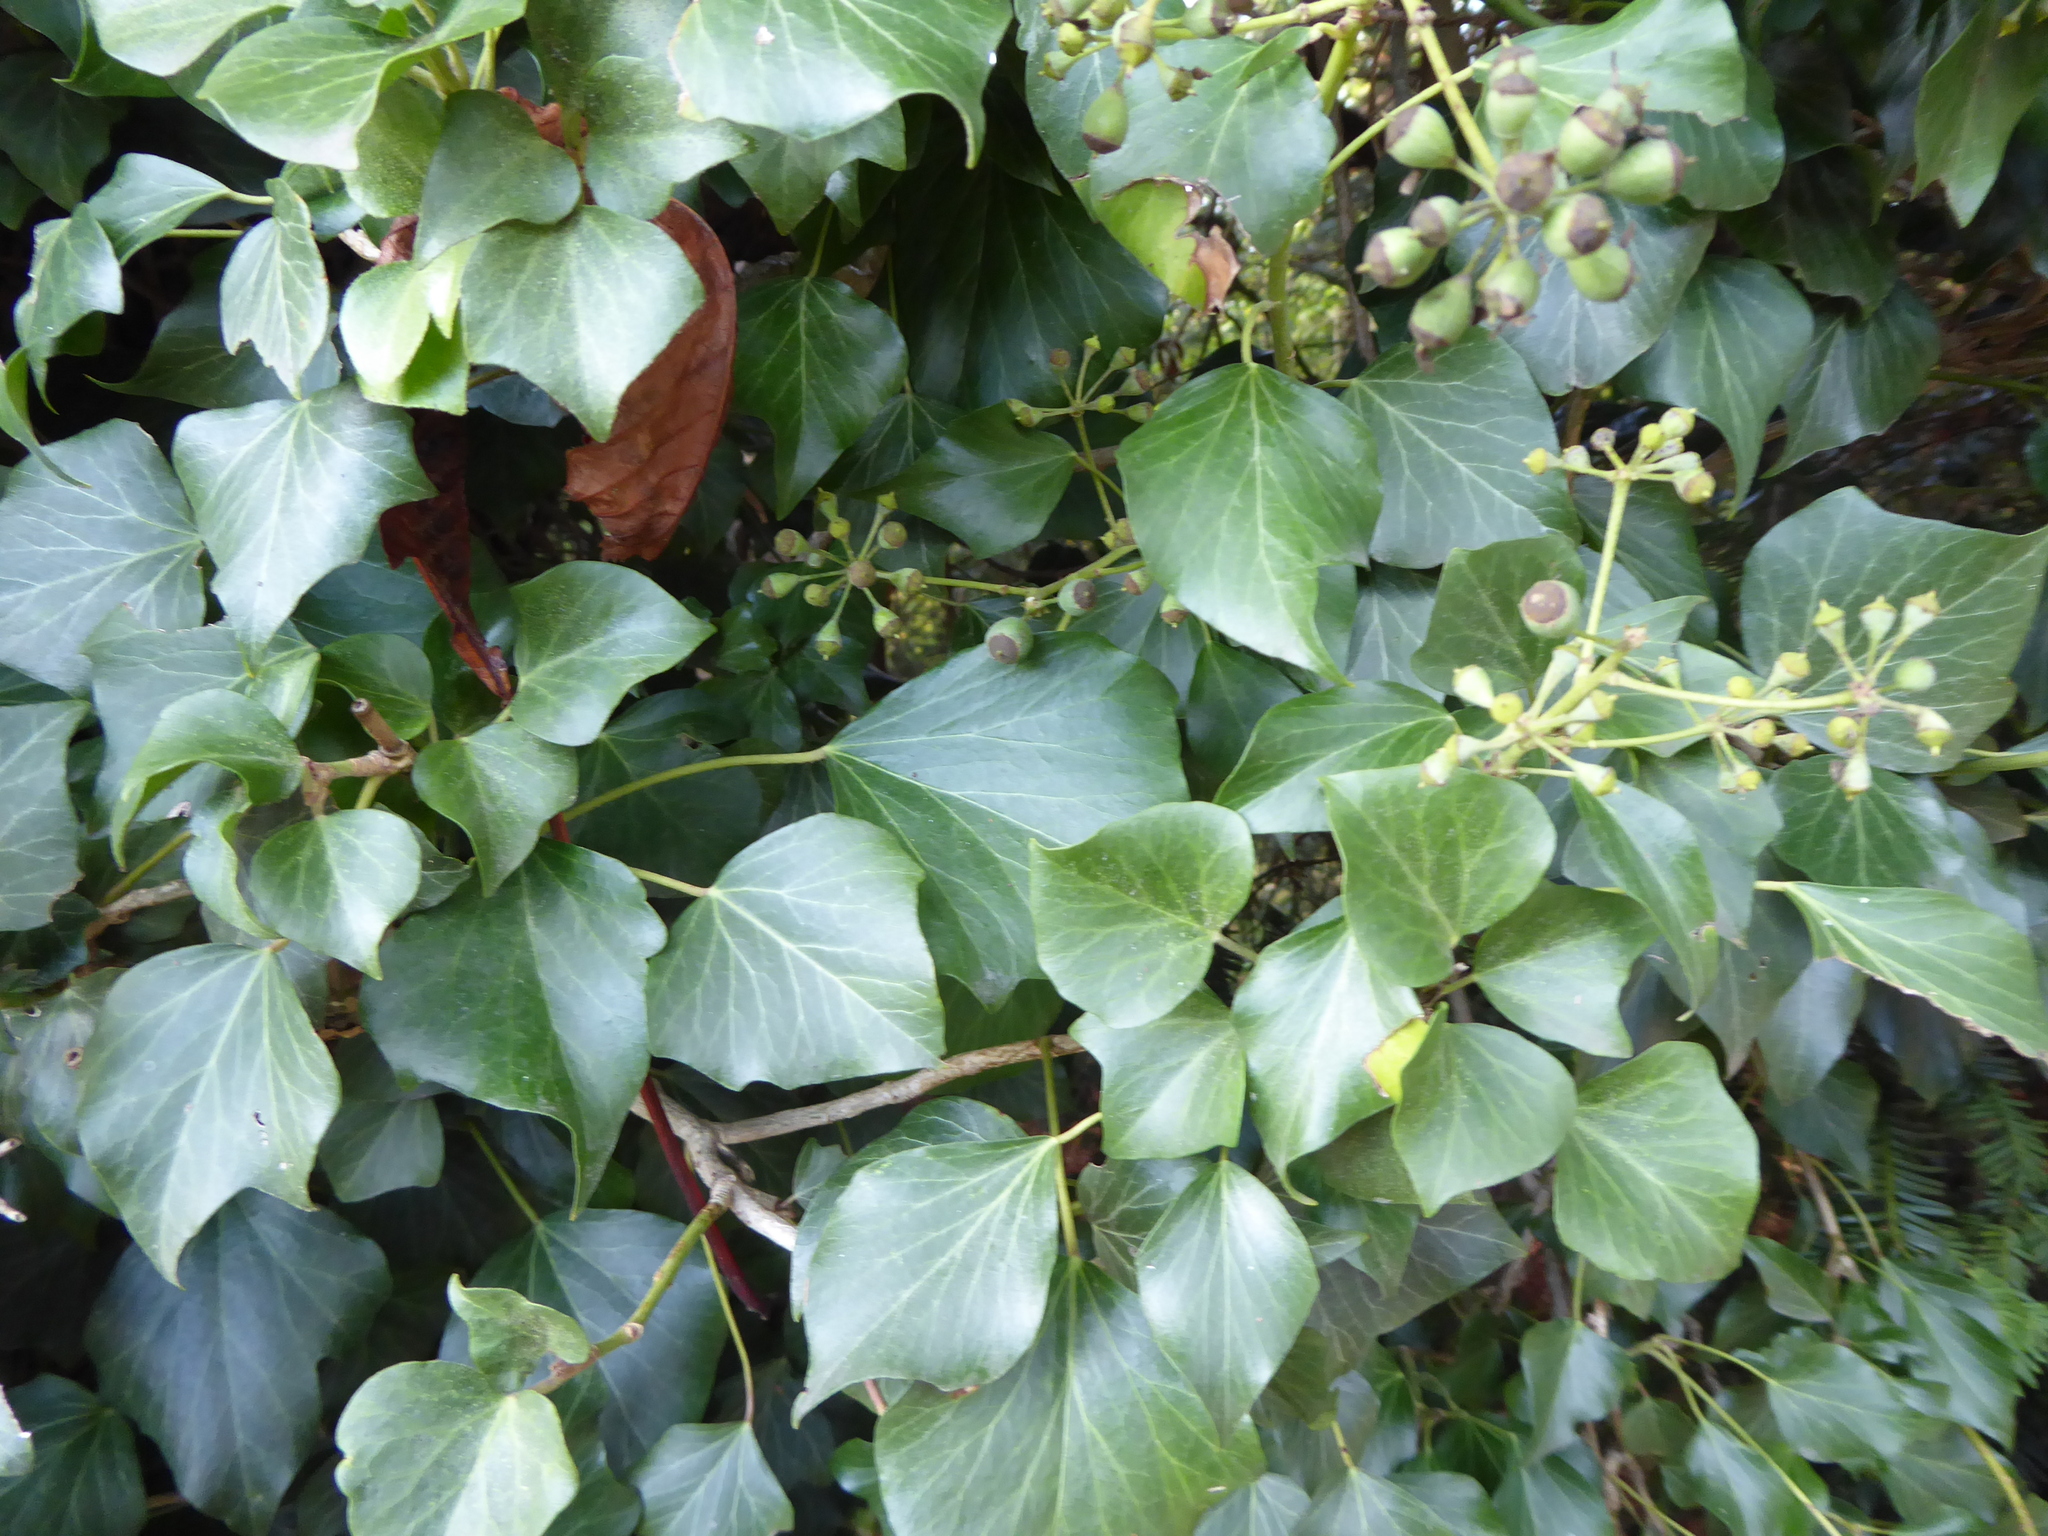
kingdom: Plantae
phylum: Tracheophyta
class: Magnoliopsida
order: Apiales
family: Araliaceae
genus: Hedera
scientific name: Hedera helix
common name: Ivy
